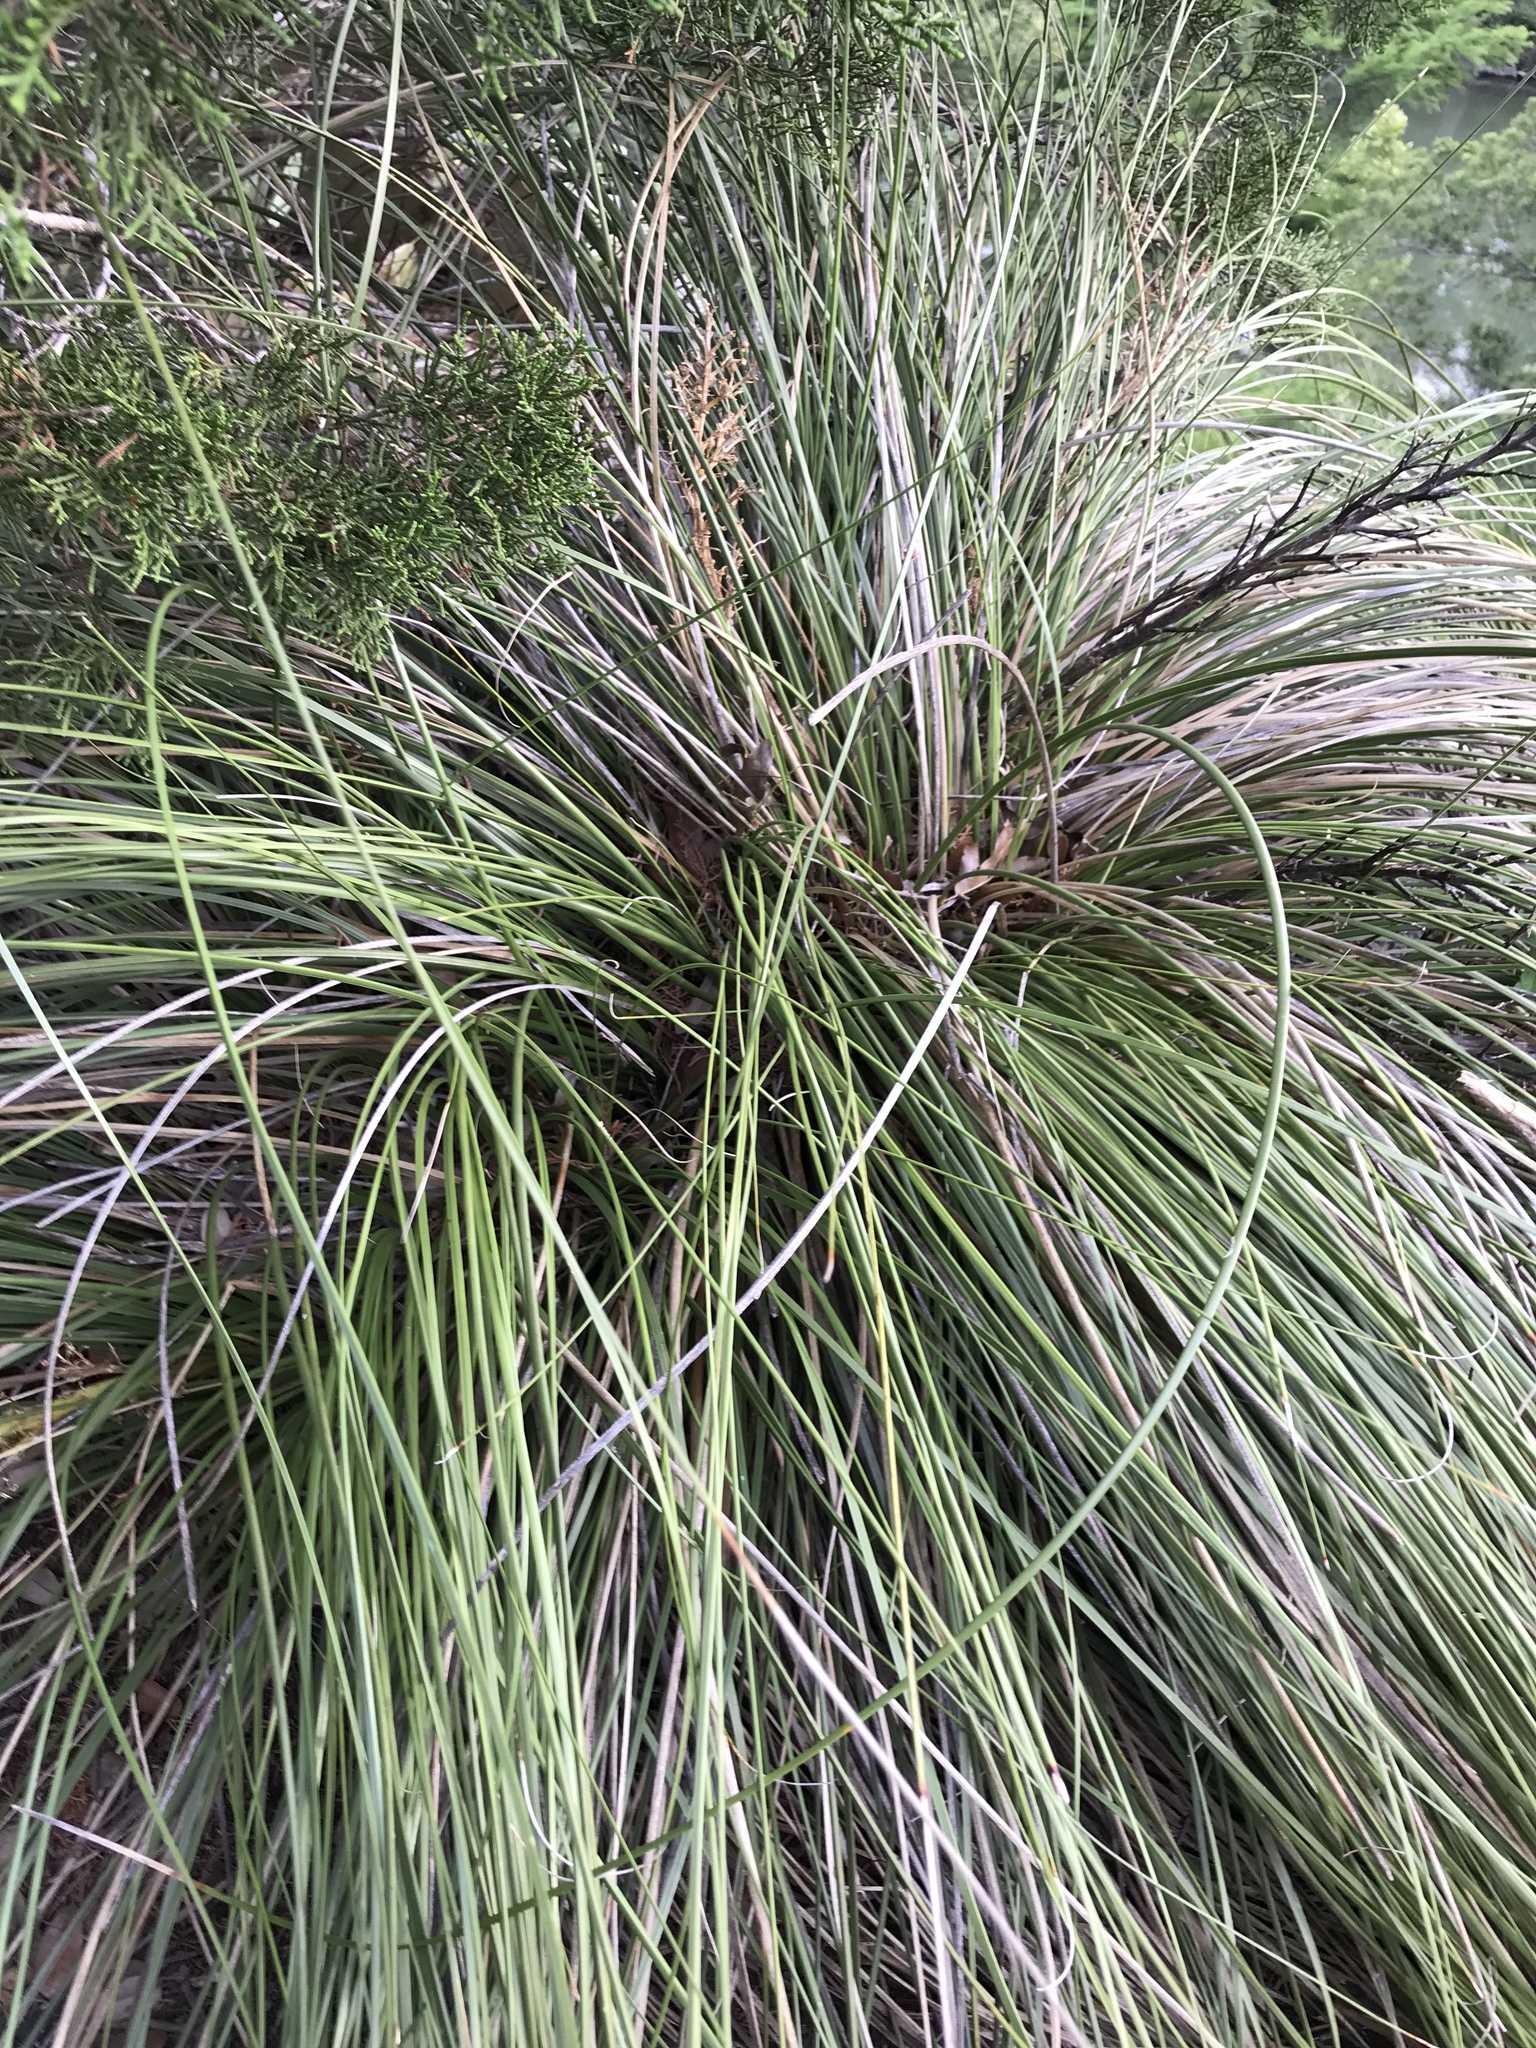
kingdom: Plantae
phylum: Tracheophyta
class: Liliopsida
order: Asparagales
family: Asparagaceae
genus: Nolina
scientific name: Nolina texana
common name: Texas sacahuiste
